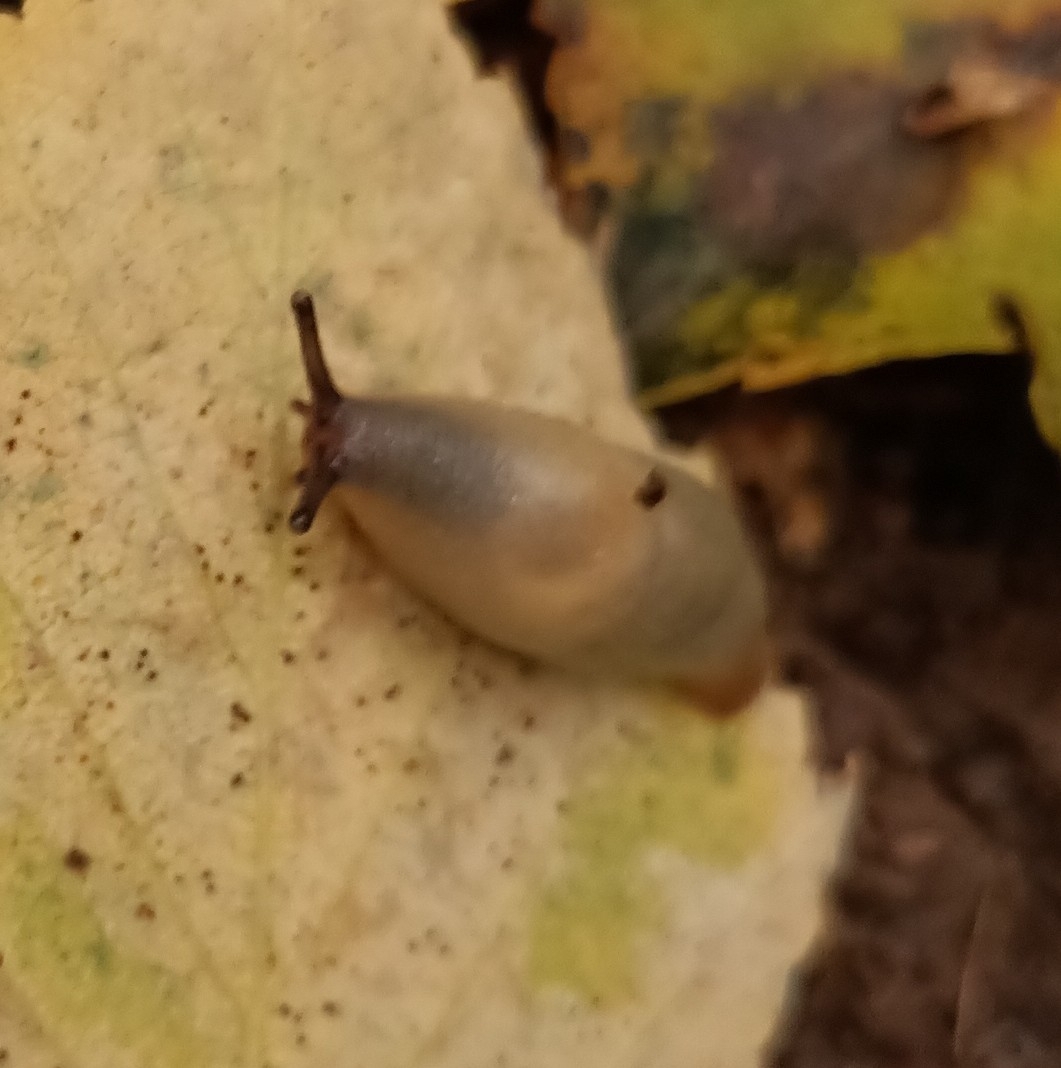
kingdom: Animalia
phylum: Mollusca
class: Gastropoda
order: Stylommatophora
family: Agriolimacidae
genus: Krynickillus
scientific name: Krynickillus melanocephalus
